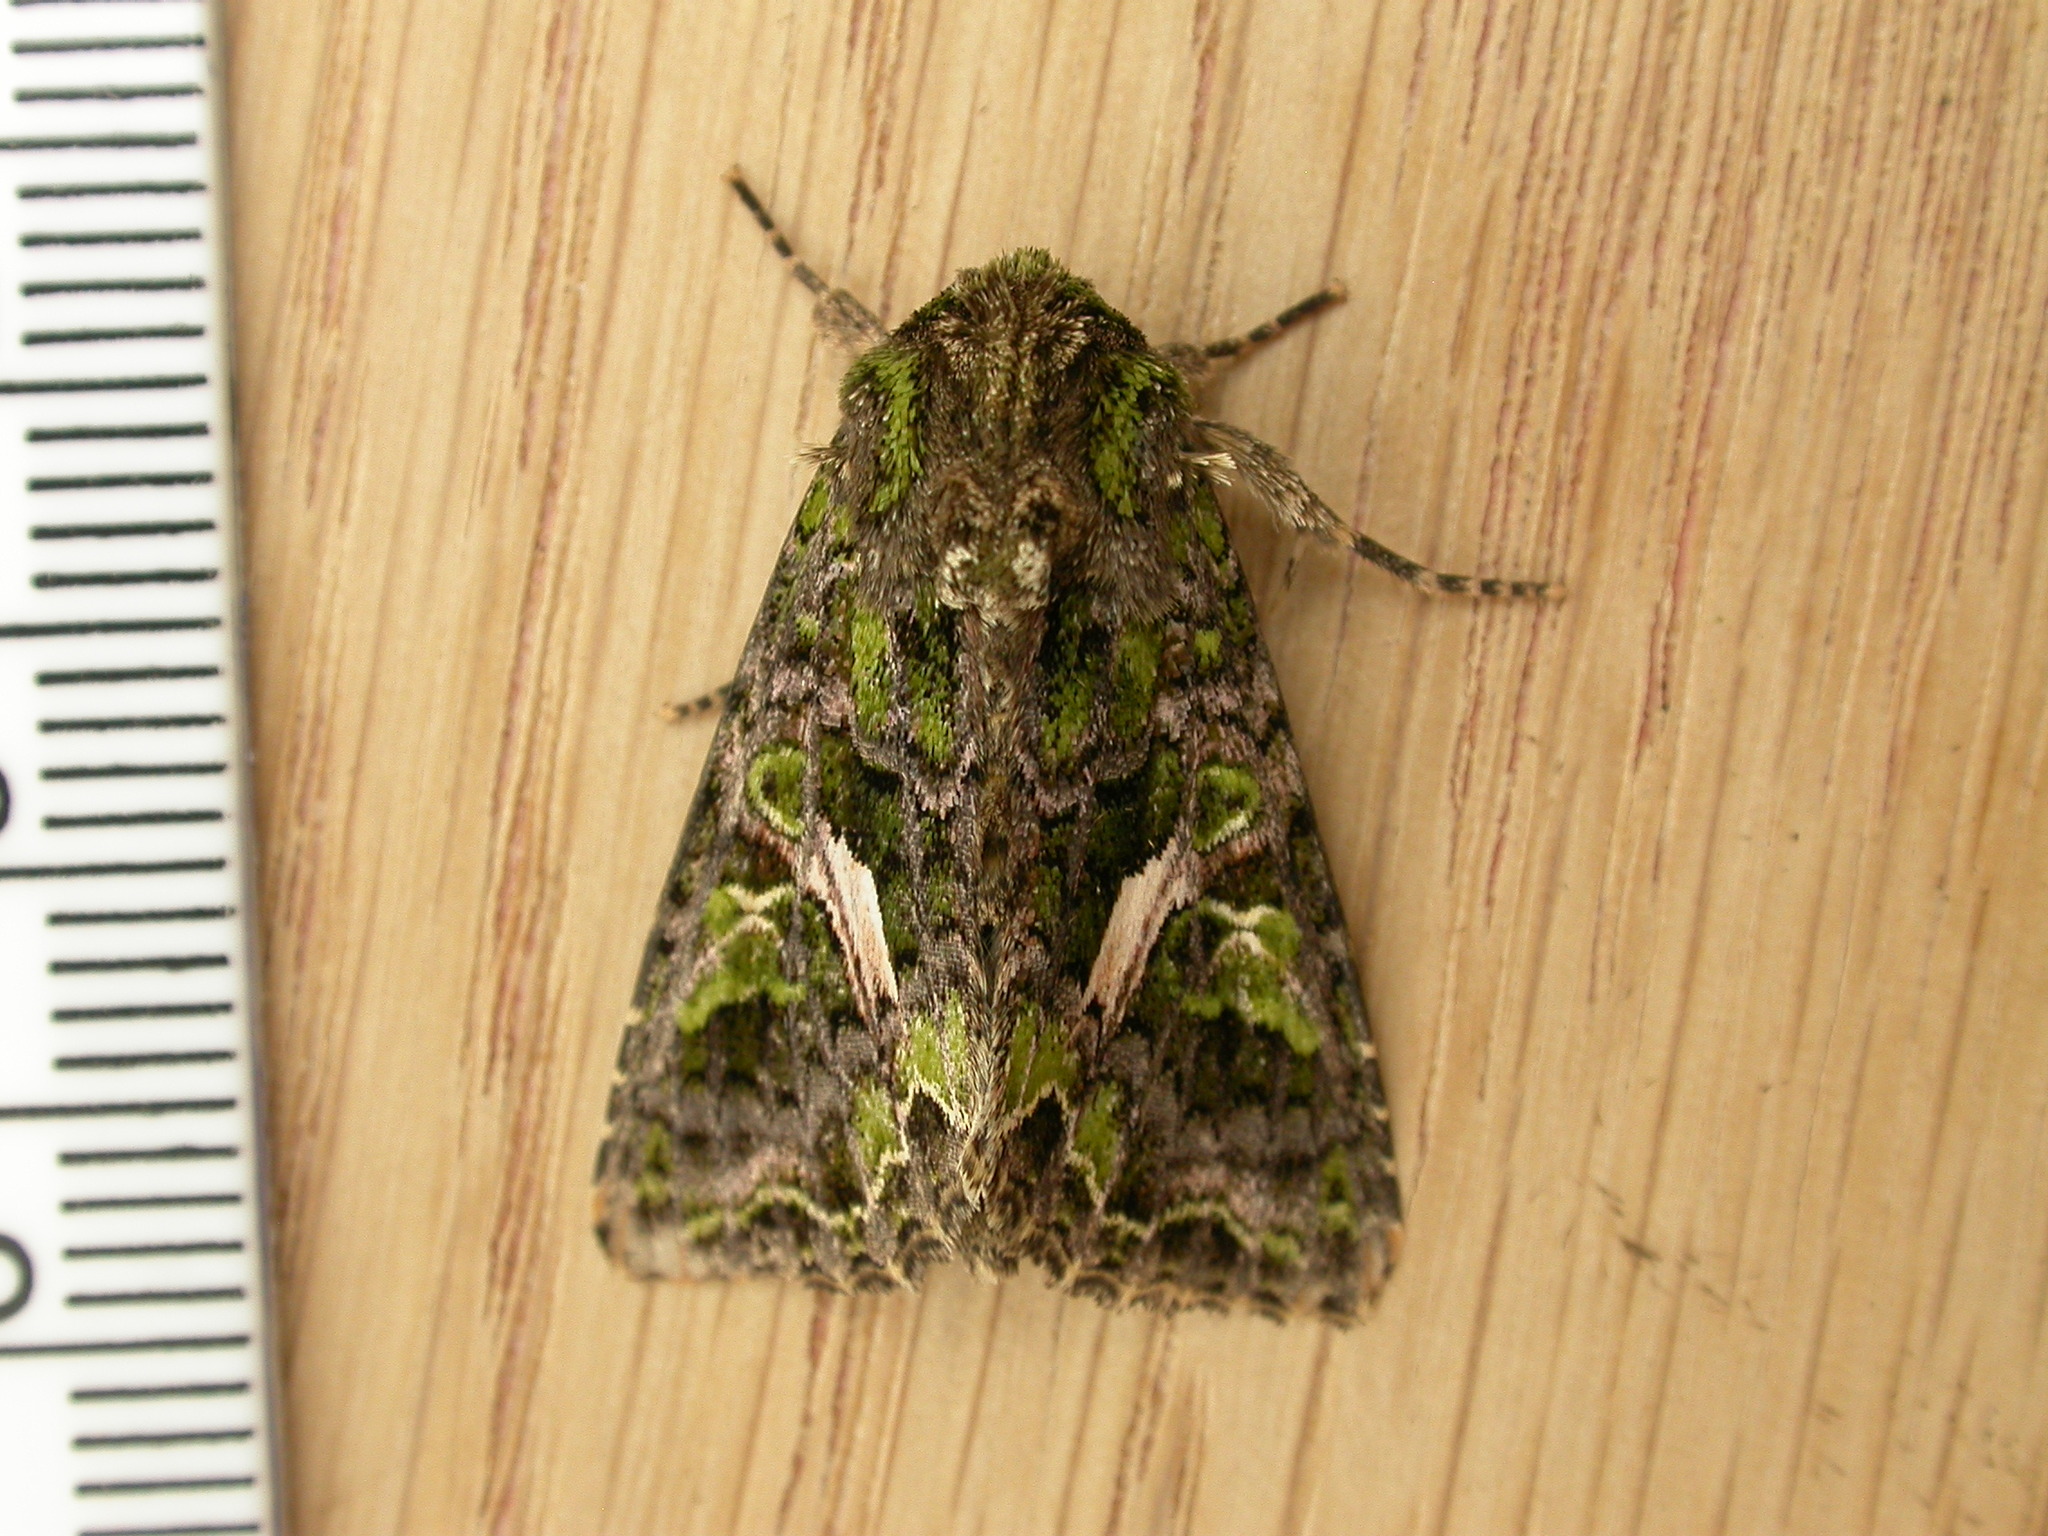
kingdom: Animalia
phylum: Arthropoda
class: Insecta
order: Lepidoptera
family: Noctuidae
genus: Trachea
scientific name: Trachea atriplicis
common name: Orache moth
